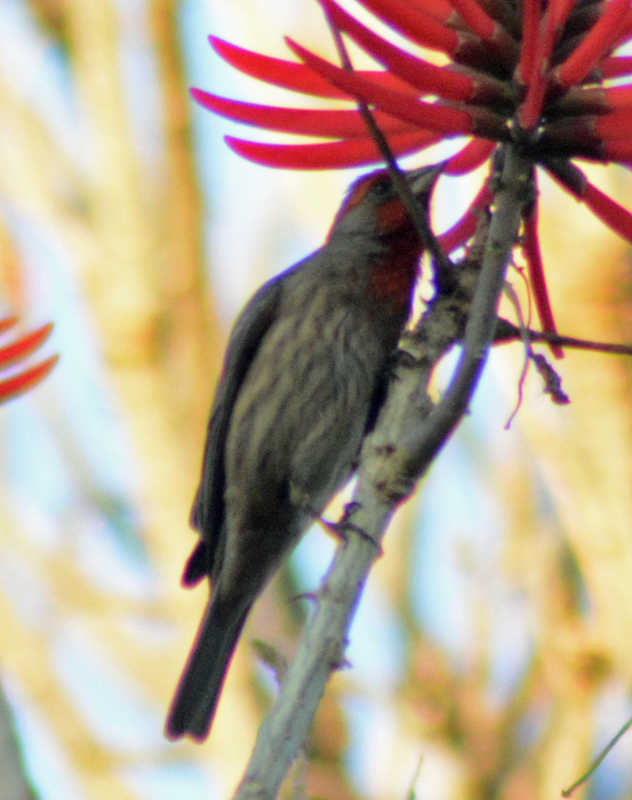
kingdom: Animalia
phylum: Chordata
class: Aves
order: Passeriformes
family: Fringillidae
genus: Haemorhous
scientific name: Haemorhous mexicanus
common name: House finch
